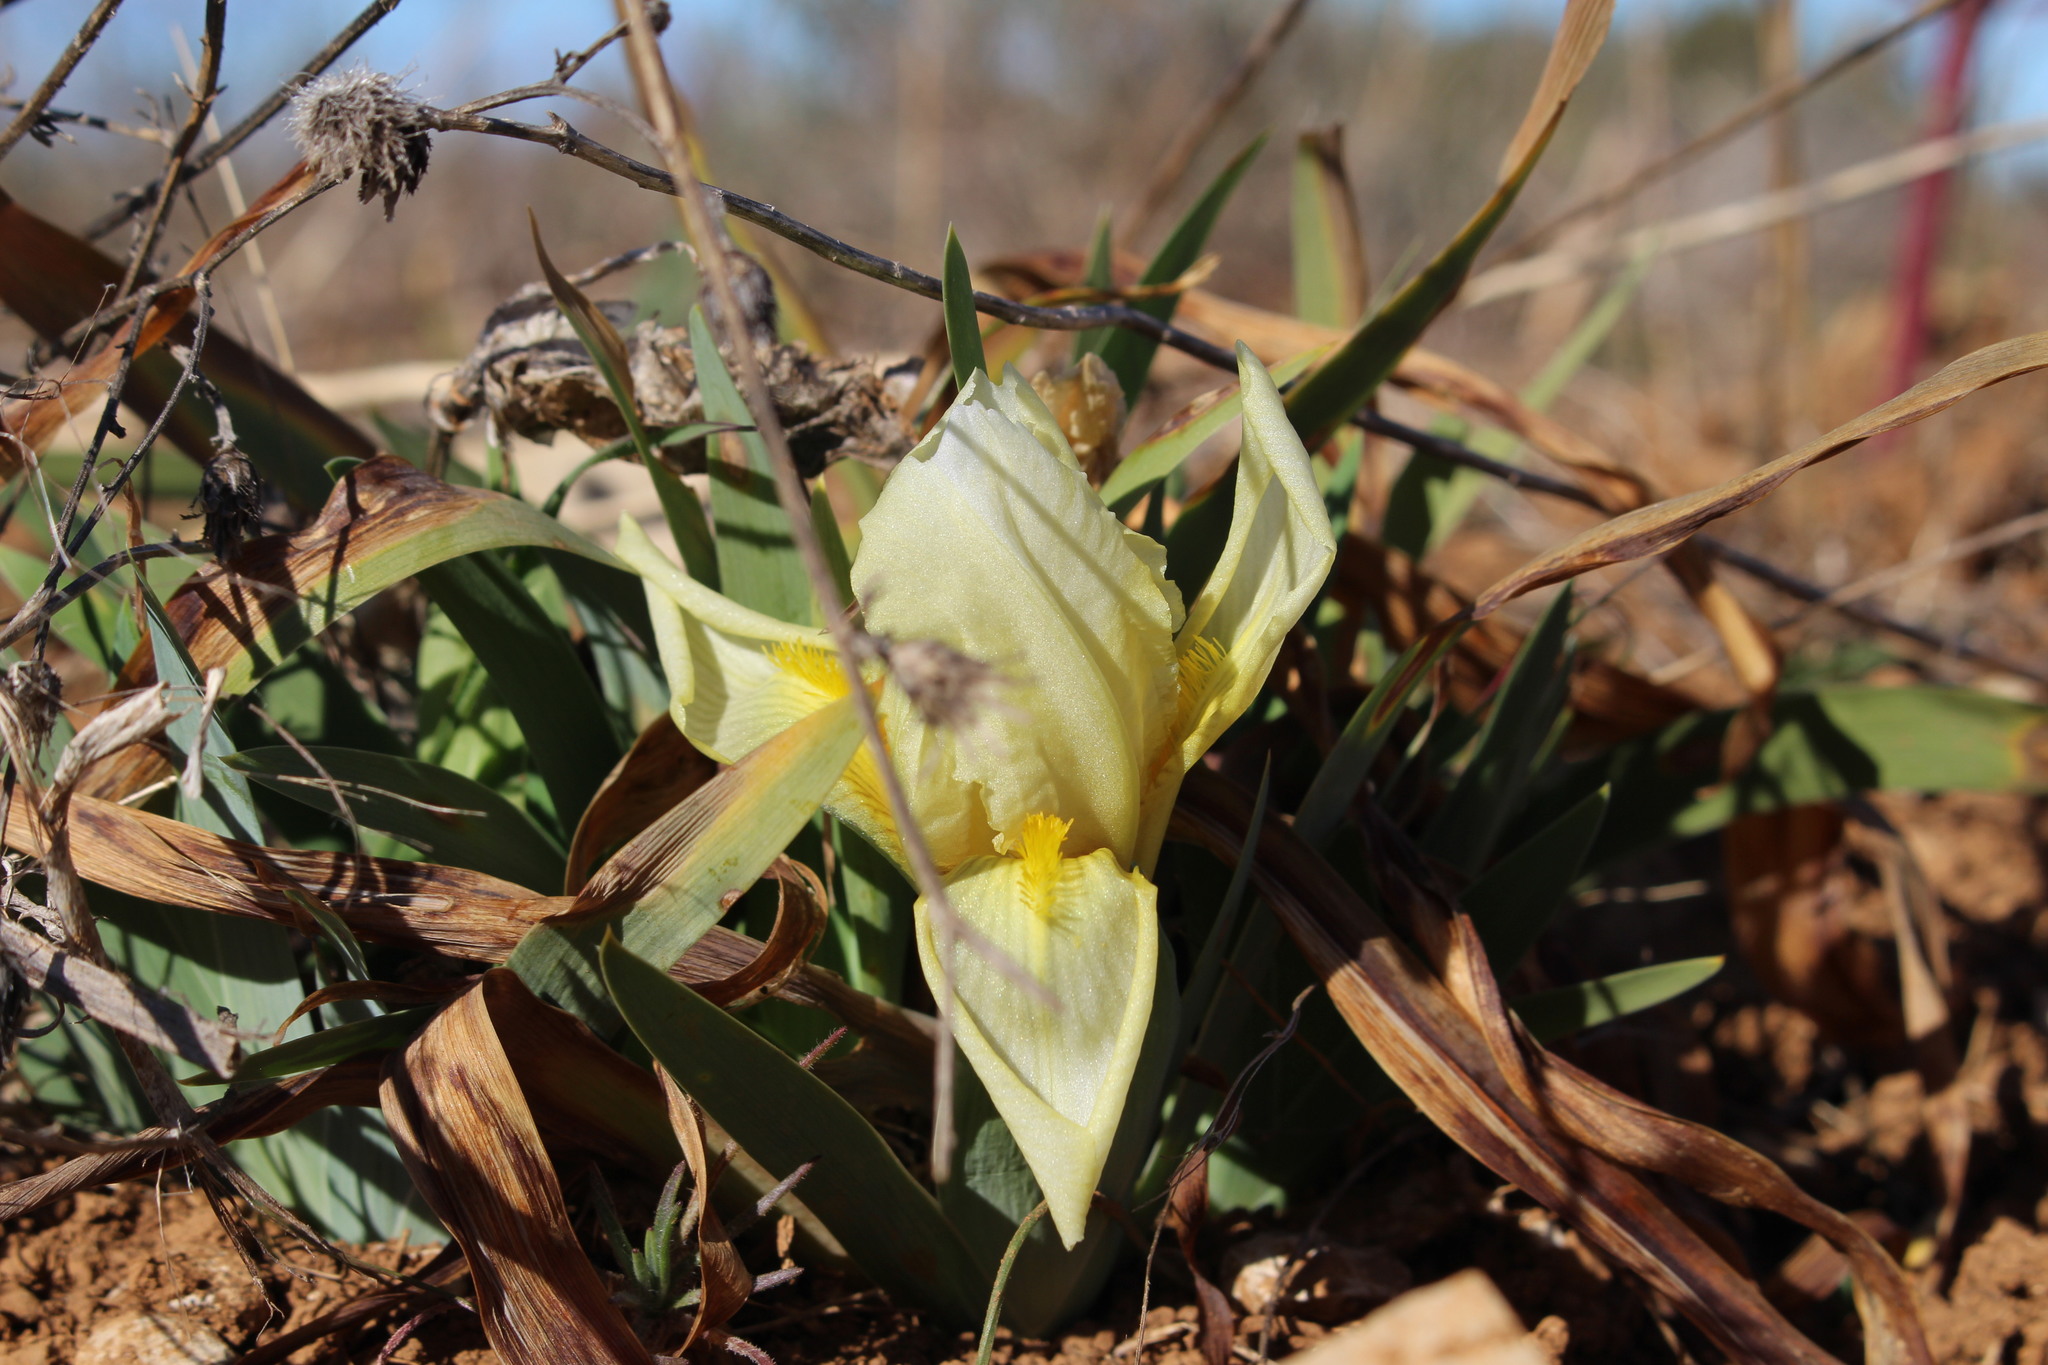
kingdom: Plantae
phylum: Tracheophyta
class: Liliopsida
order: Asparagales
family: Iridaceae
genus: Iris
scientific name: Iris lutescens
